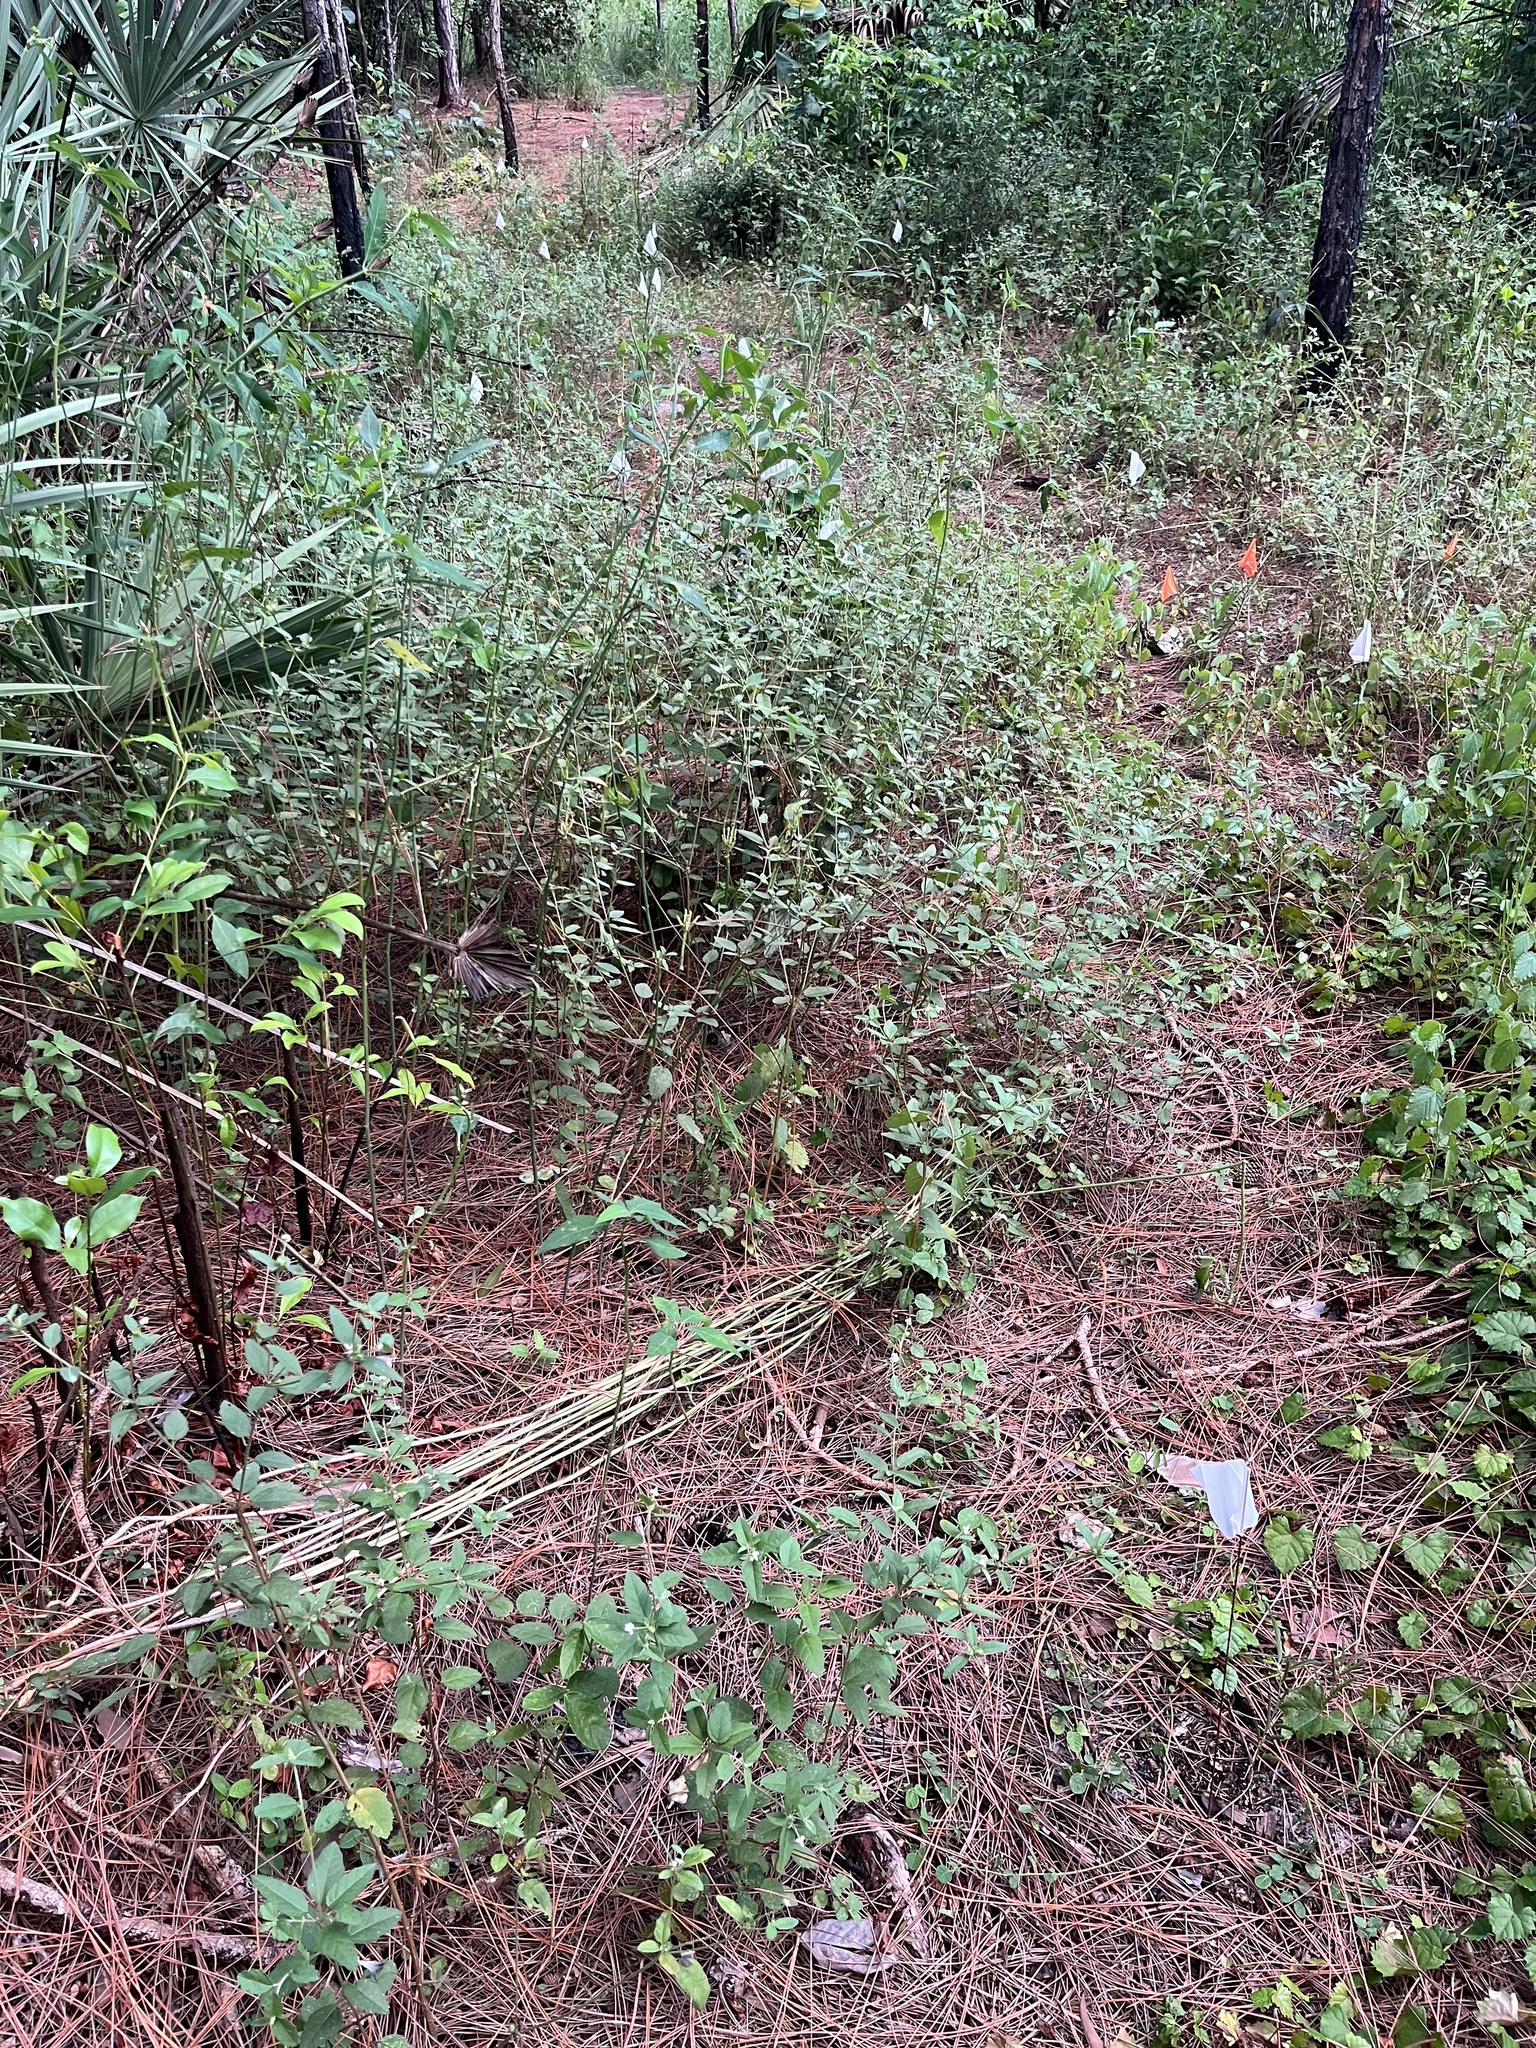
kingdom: Plantae
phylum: Tracheophyta
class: Magnoliopsida
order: Malpighiales
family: Euphorbiaceae
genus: Croton
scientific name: Croton glandulosus
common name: Tropic croton
